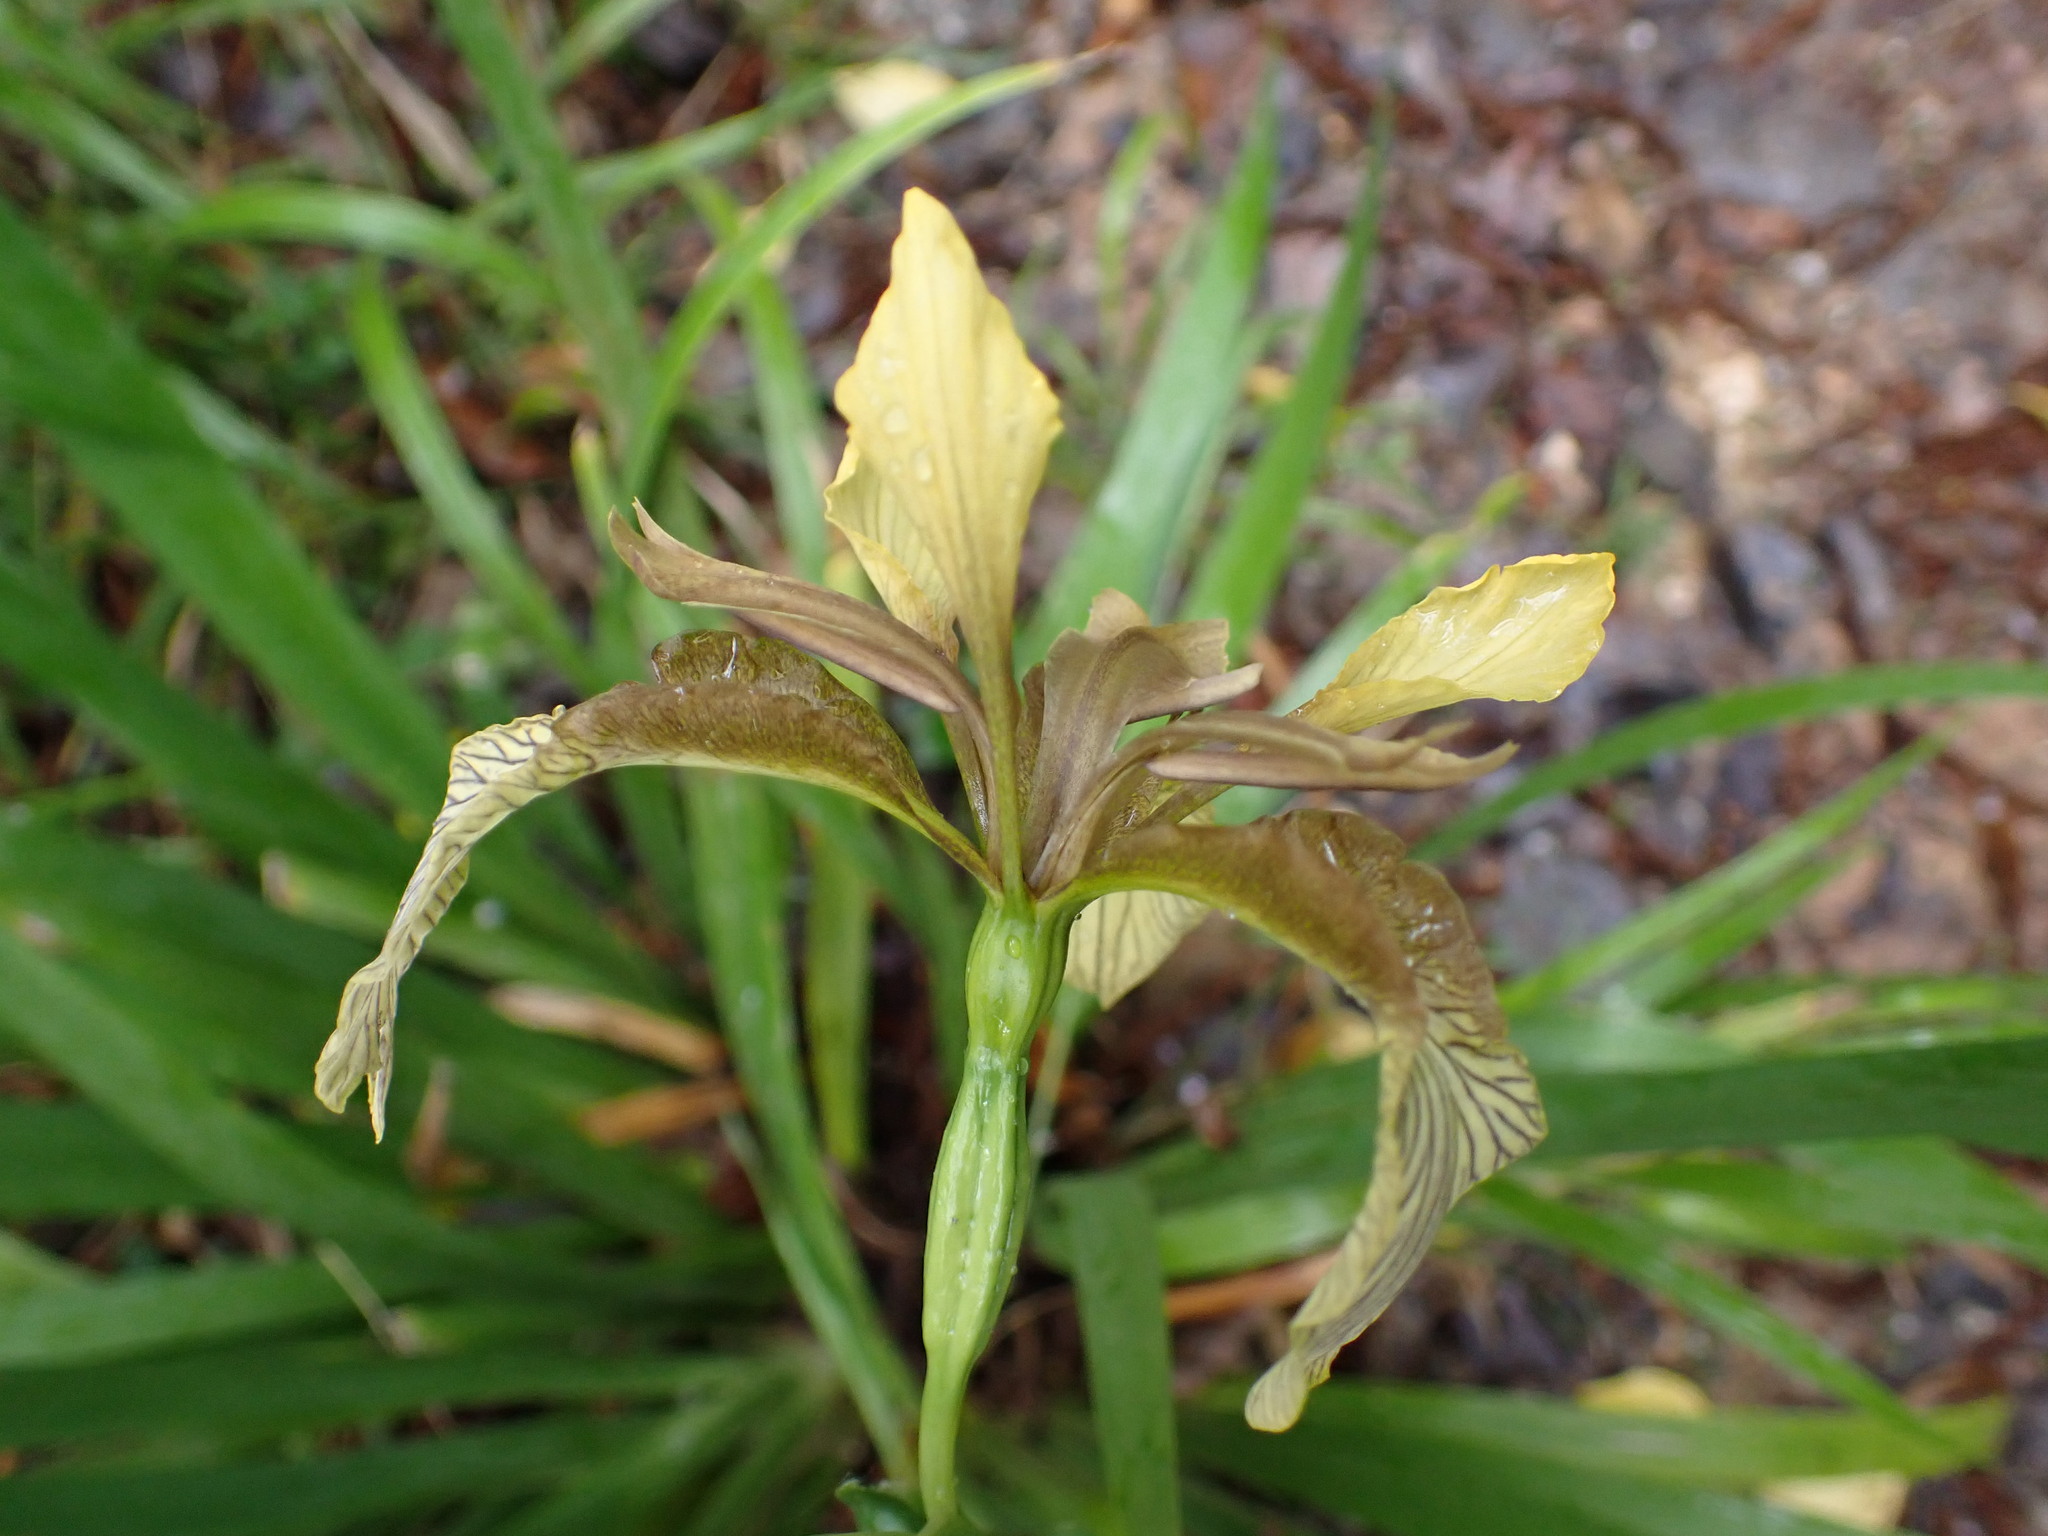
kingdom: Plantae
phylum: Tracheophyta
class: Liliopsida
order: Asparagales
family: Iridaceae
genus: Iris
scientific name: Iris foetidissima
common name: Stinking iris
